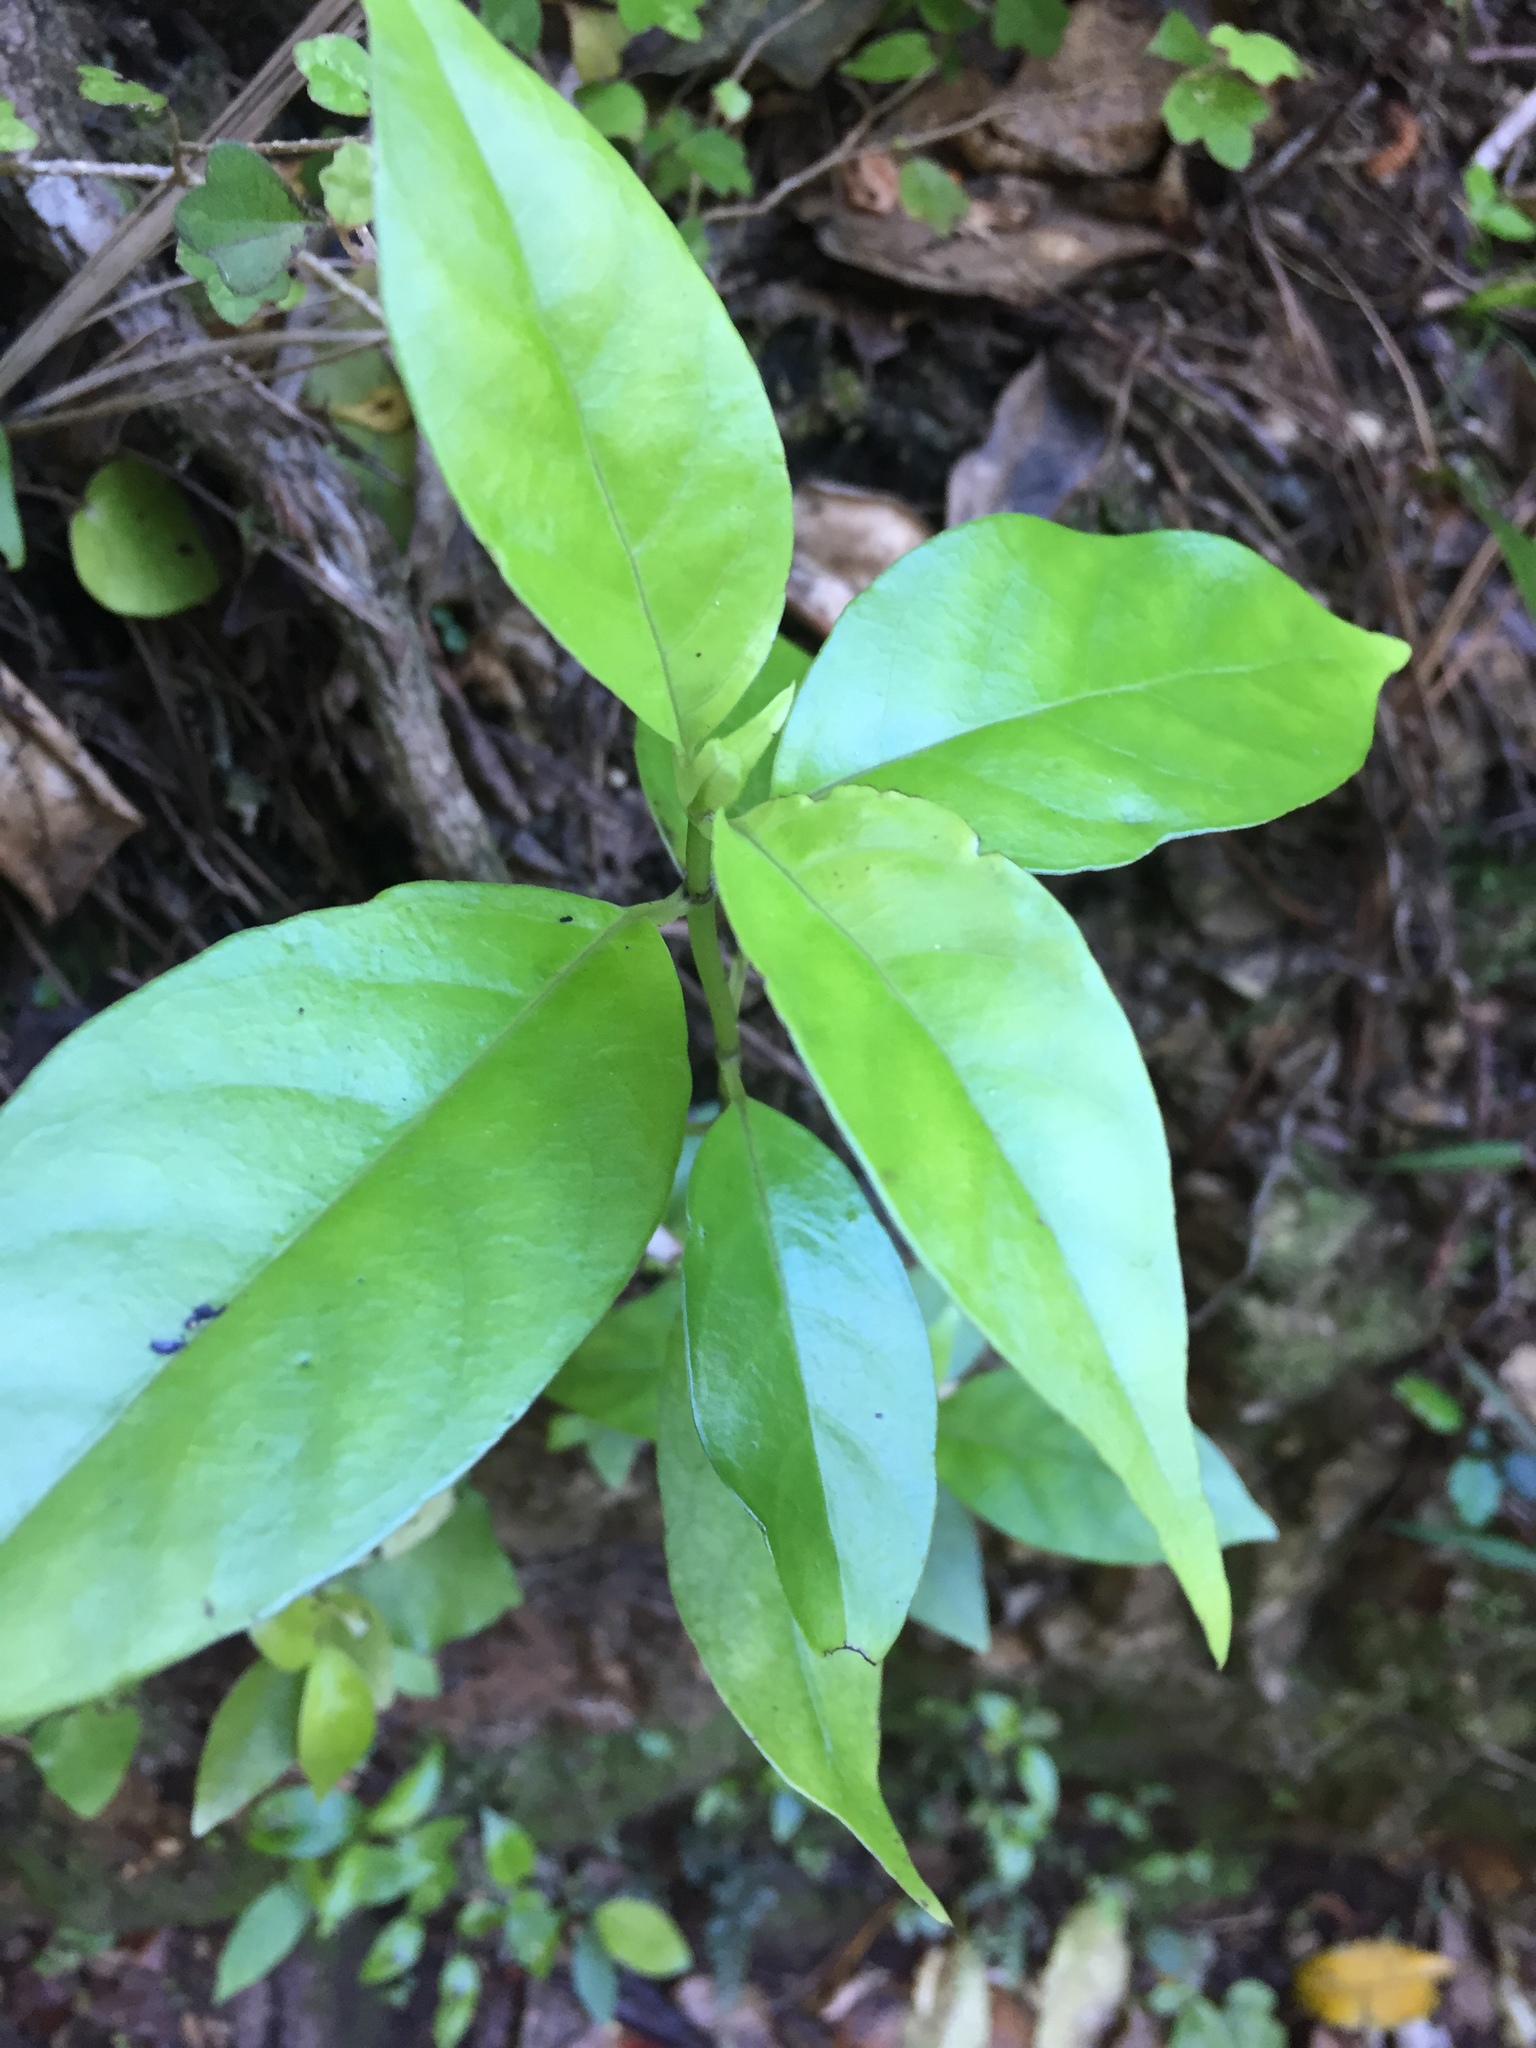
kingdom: Plantae
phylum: Tracheophyta
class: Magnoliopsida
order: Gentianales
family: Loganiaceae
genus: Geniostoma
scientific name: Geniostoma ligustrifolium
